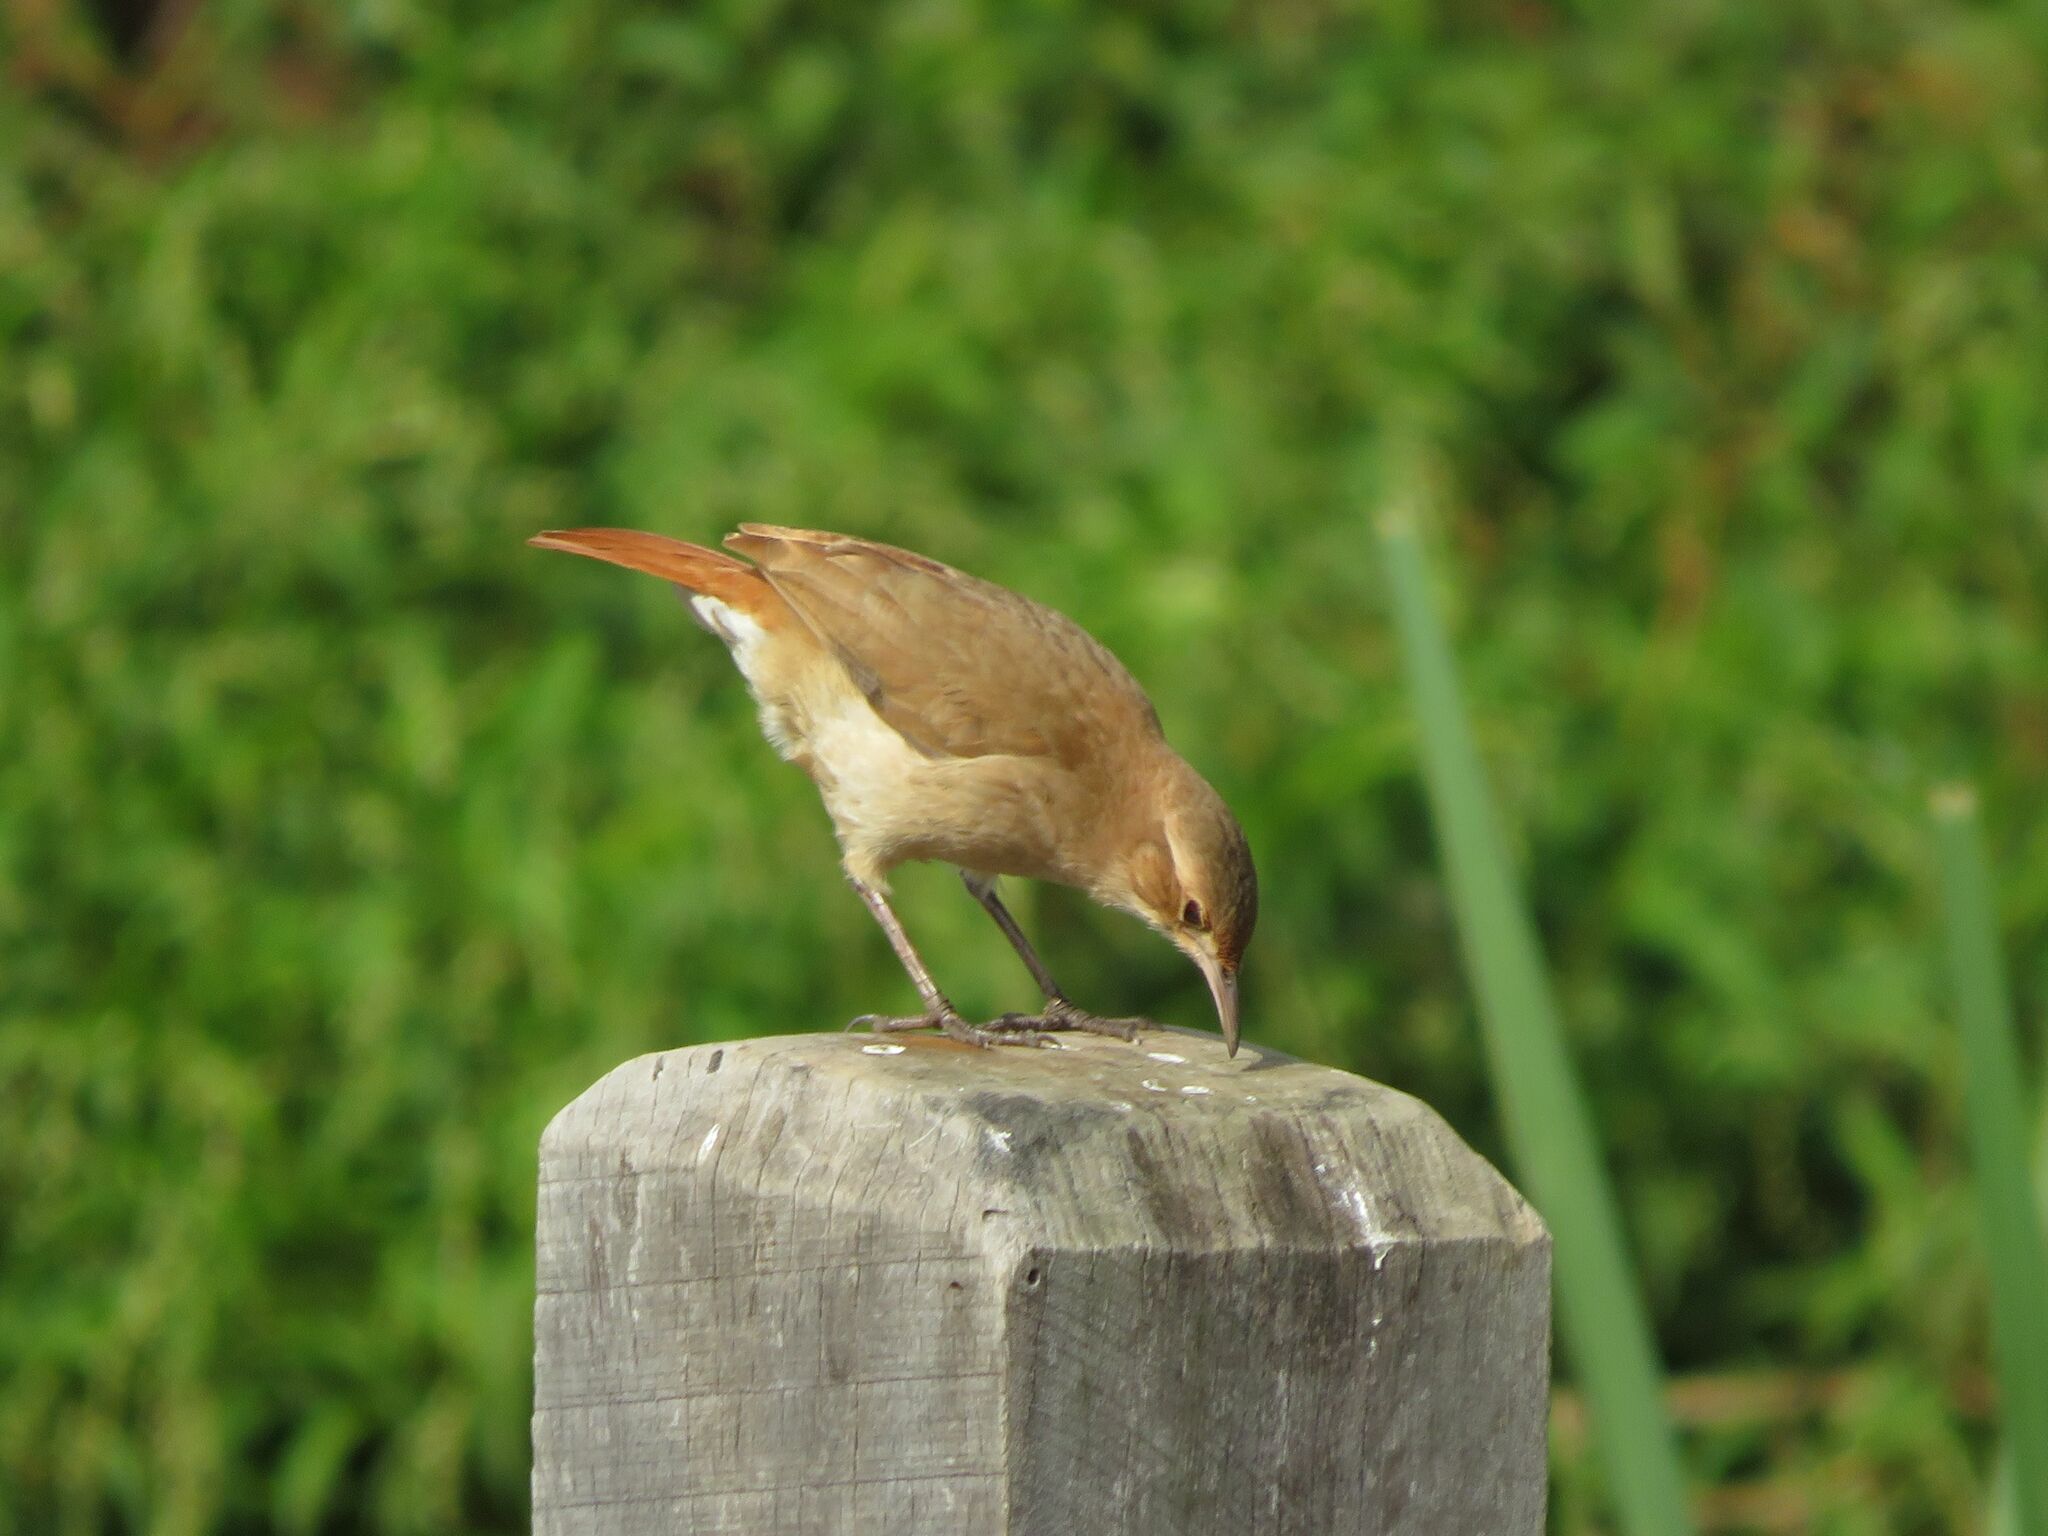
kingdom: Animalia
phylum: Chordata
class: Aves
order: Passeriformes
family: Furnariidae
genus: Furnarius
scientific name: Furnarius rufus
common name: Rufous hornero
